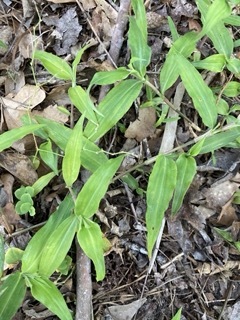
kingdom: Plantae
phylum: Tracheophyta
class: Liliopsida
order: Commelinales
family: Commelinaceae
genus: Commelina
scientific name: Commelina erecta
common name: Blousel blommetjie
